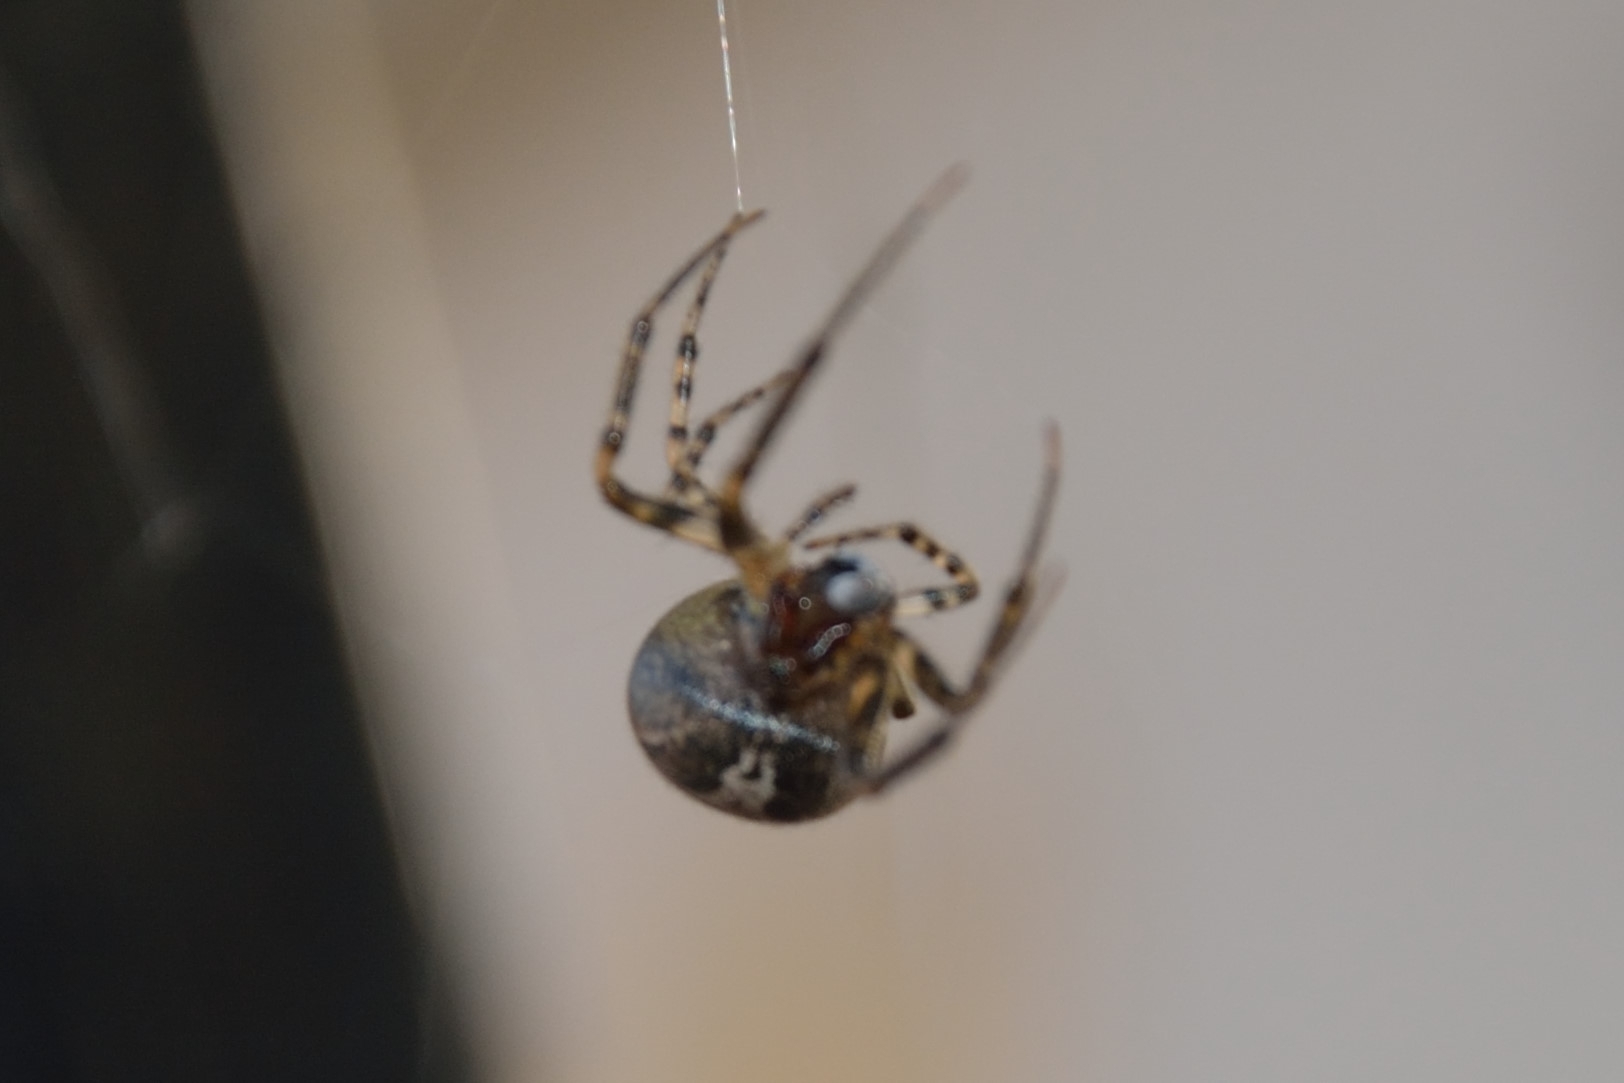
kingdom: Animalia
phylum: Arthropoda
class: Arachnida
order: Araneae
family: Araneidae
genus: Zygiella
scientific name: Zygiella x-notata
